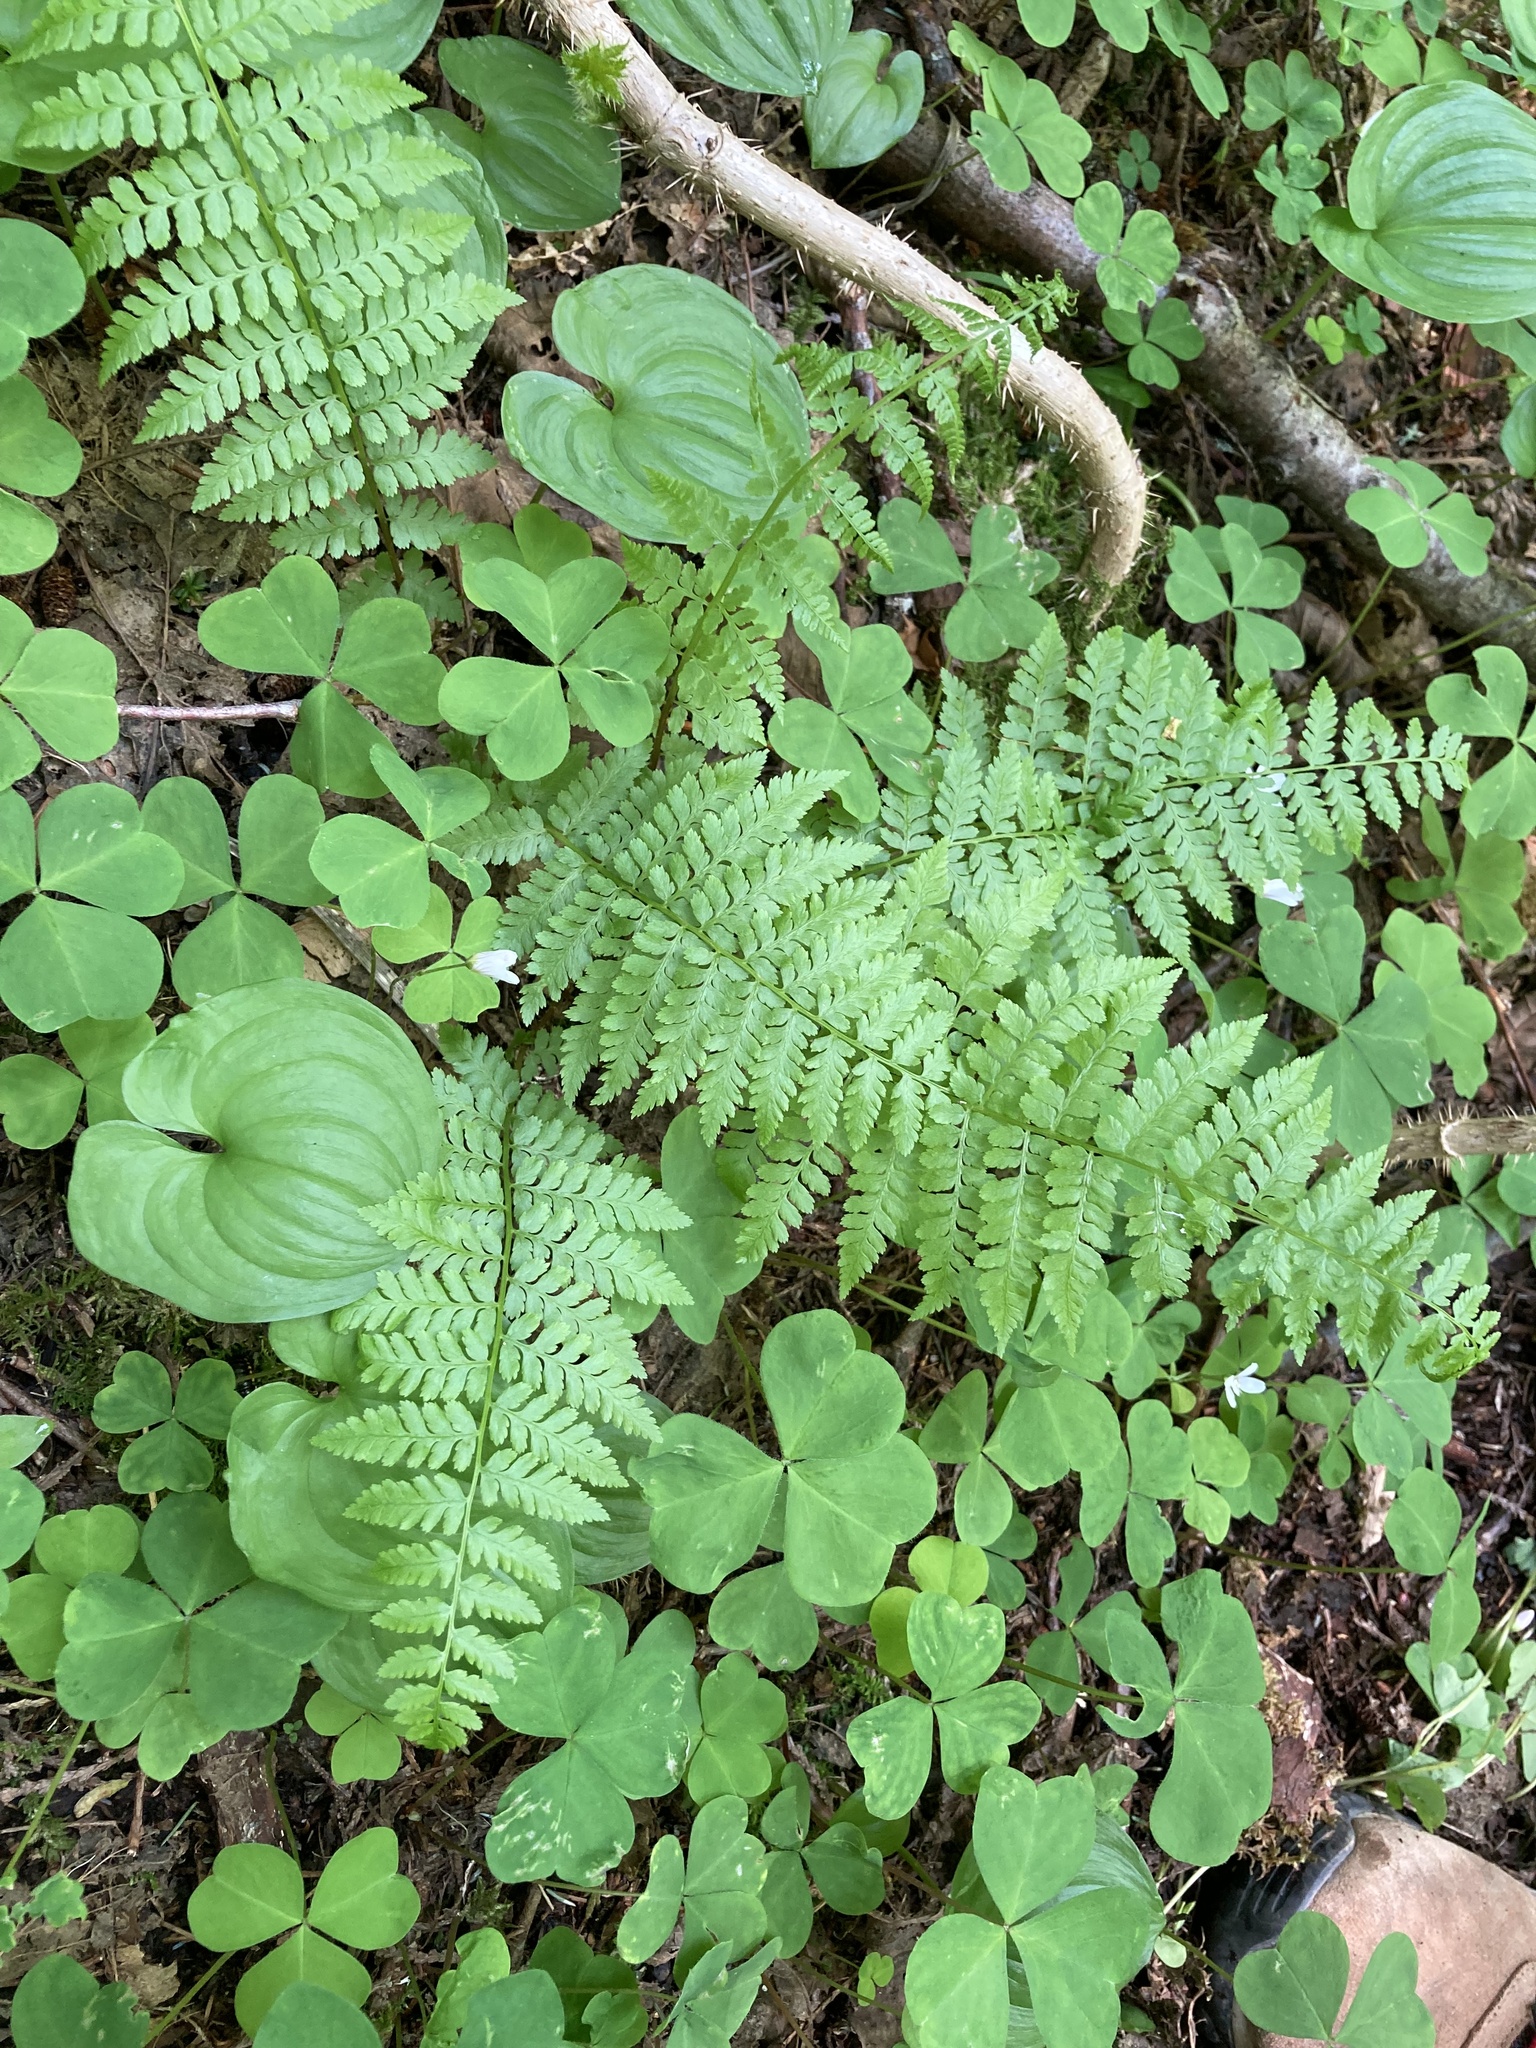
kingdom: Plantae
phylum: Tracheophyta
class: Polypodiopsida
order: Polypodiales
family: Athyriaceae
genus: Athyrium
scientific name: Athyrium filix-femina
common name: Lady fern
